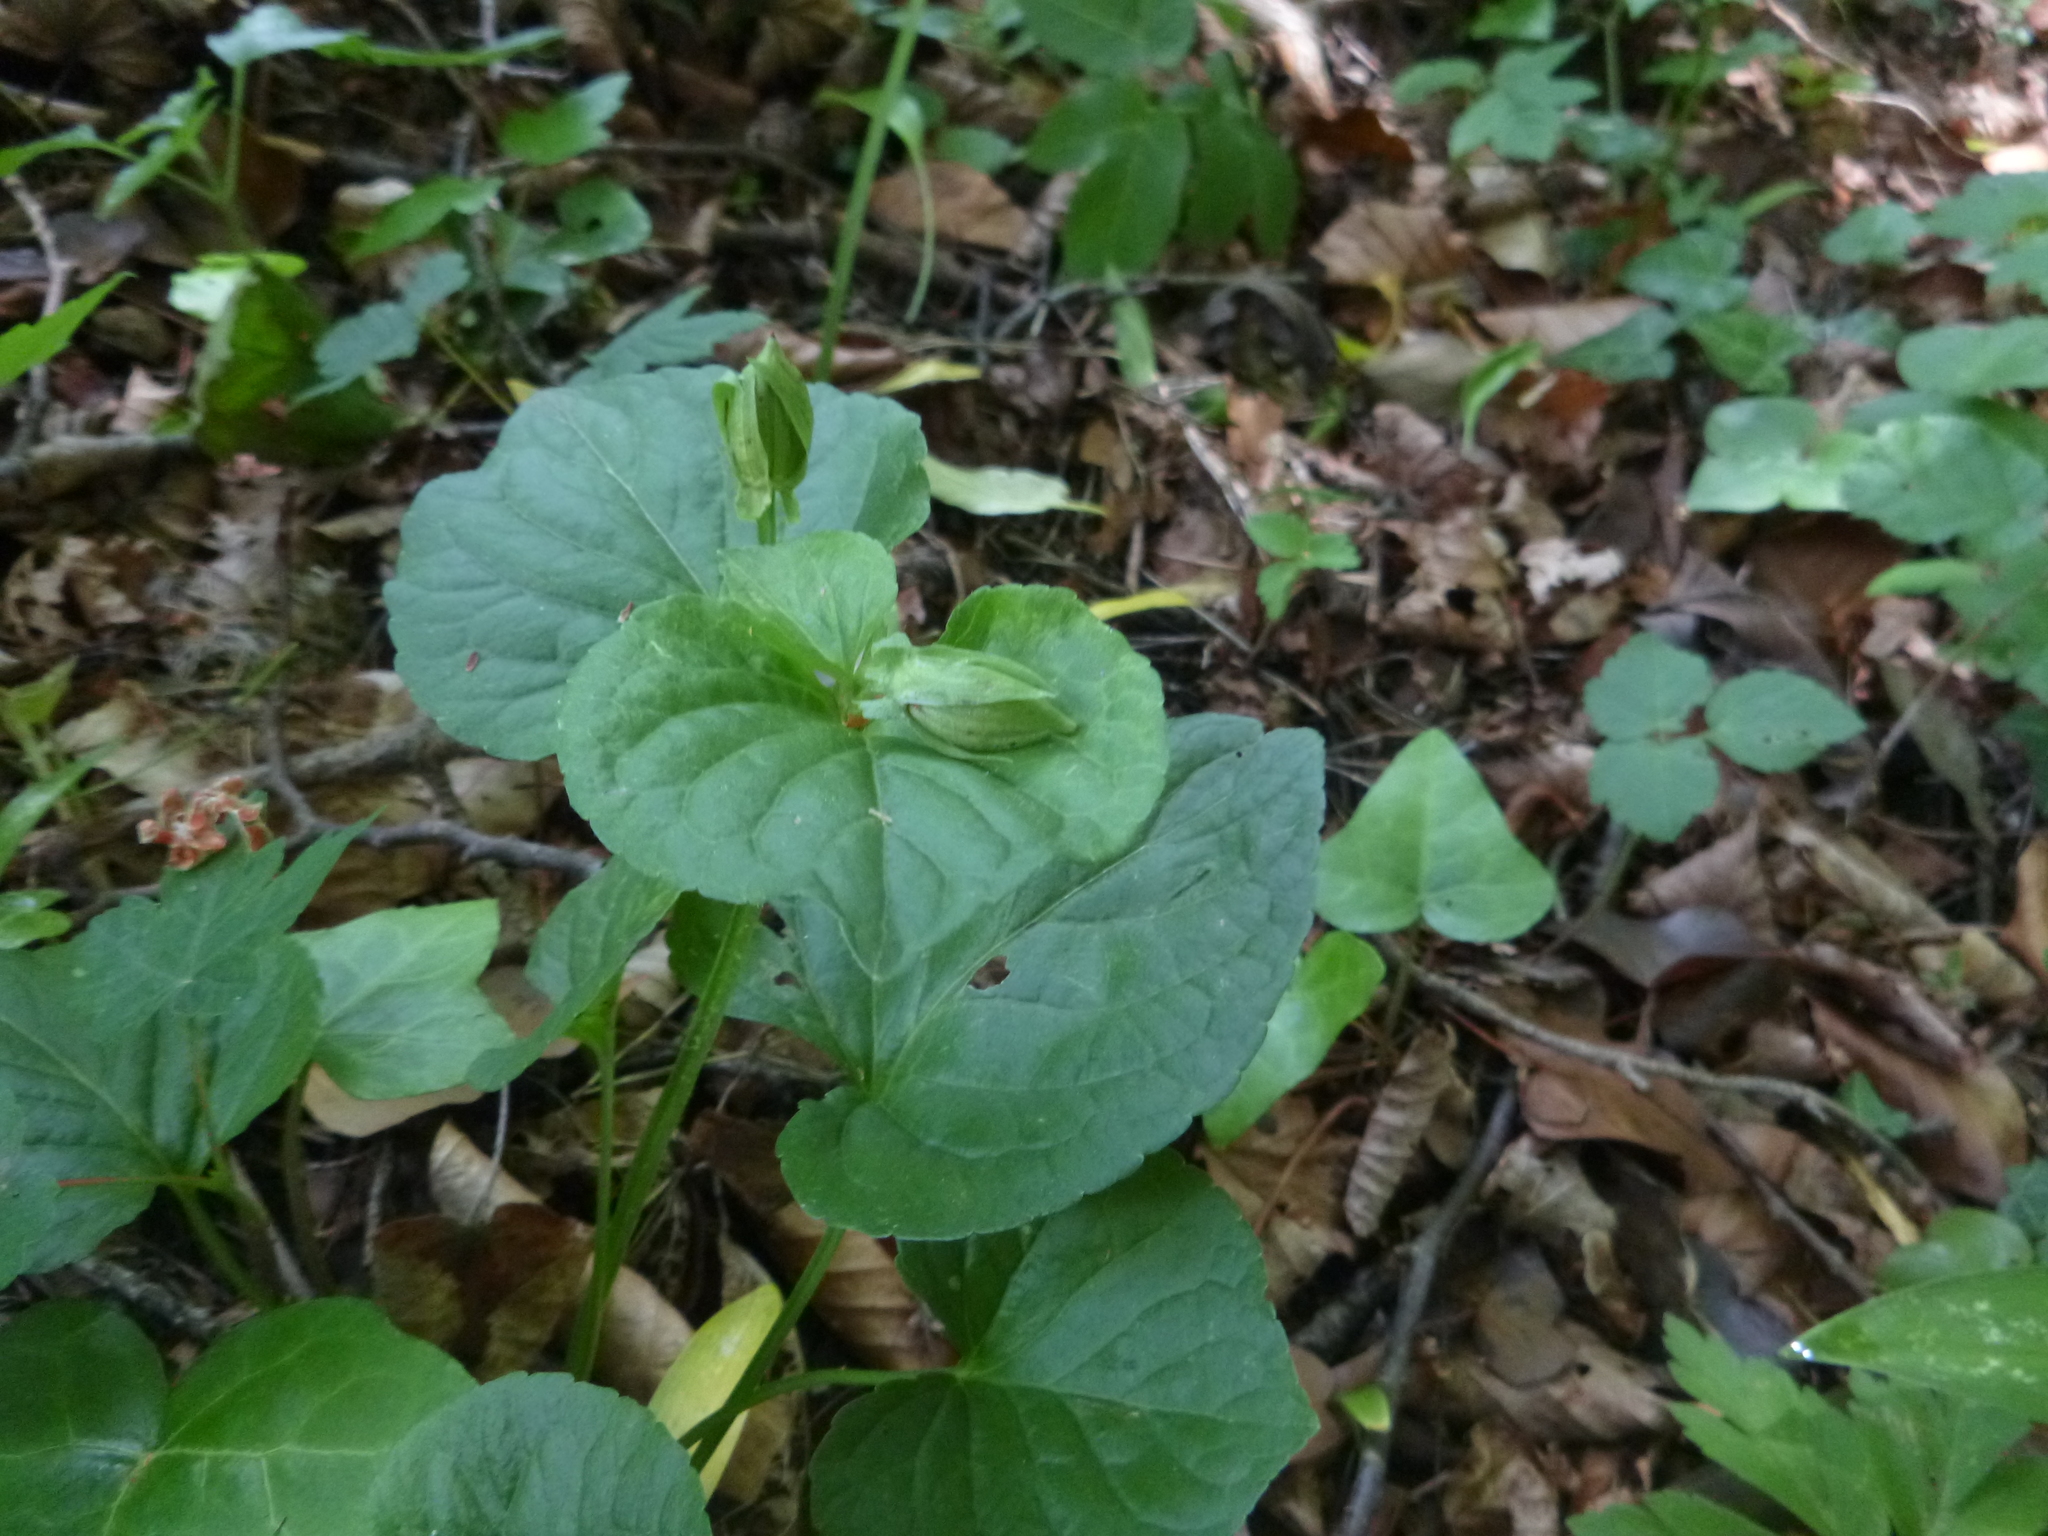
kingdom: Plantae
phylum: Tracheophyta
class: Magnoliopsida
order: Malpighiales
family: Violaceae
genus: Viola
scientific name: Viola mirabilis
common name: Wonder violet
